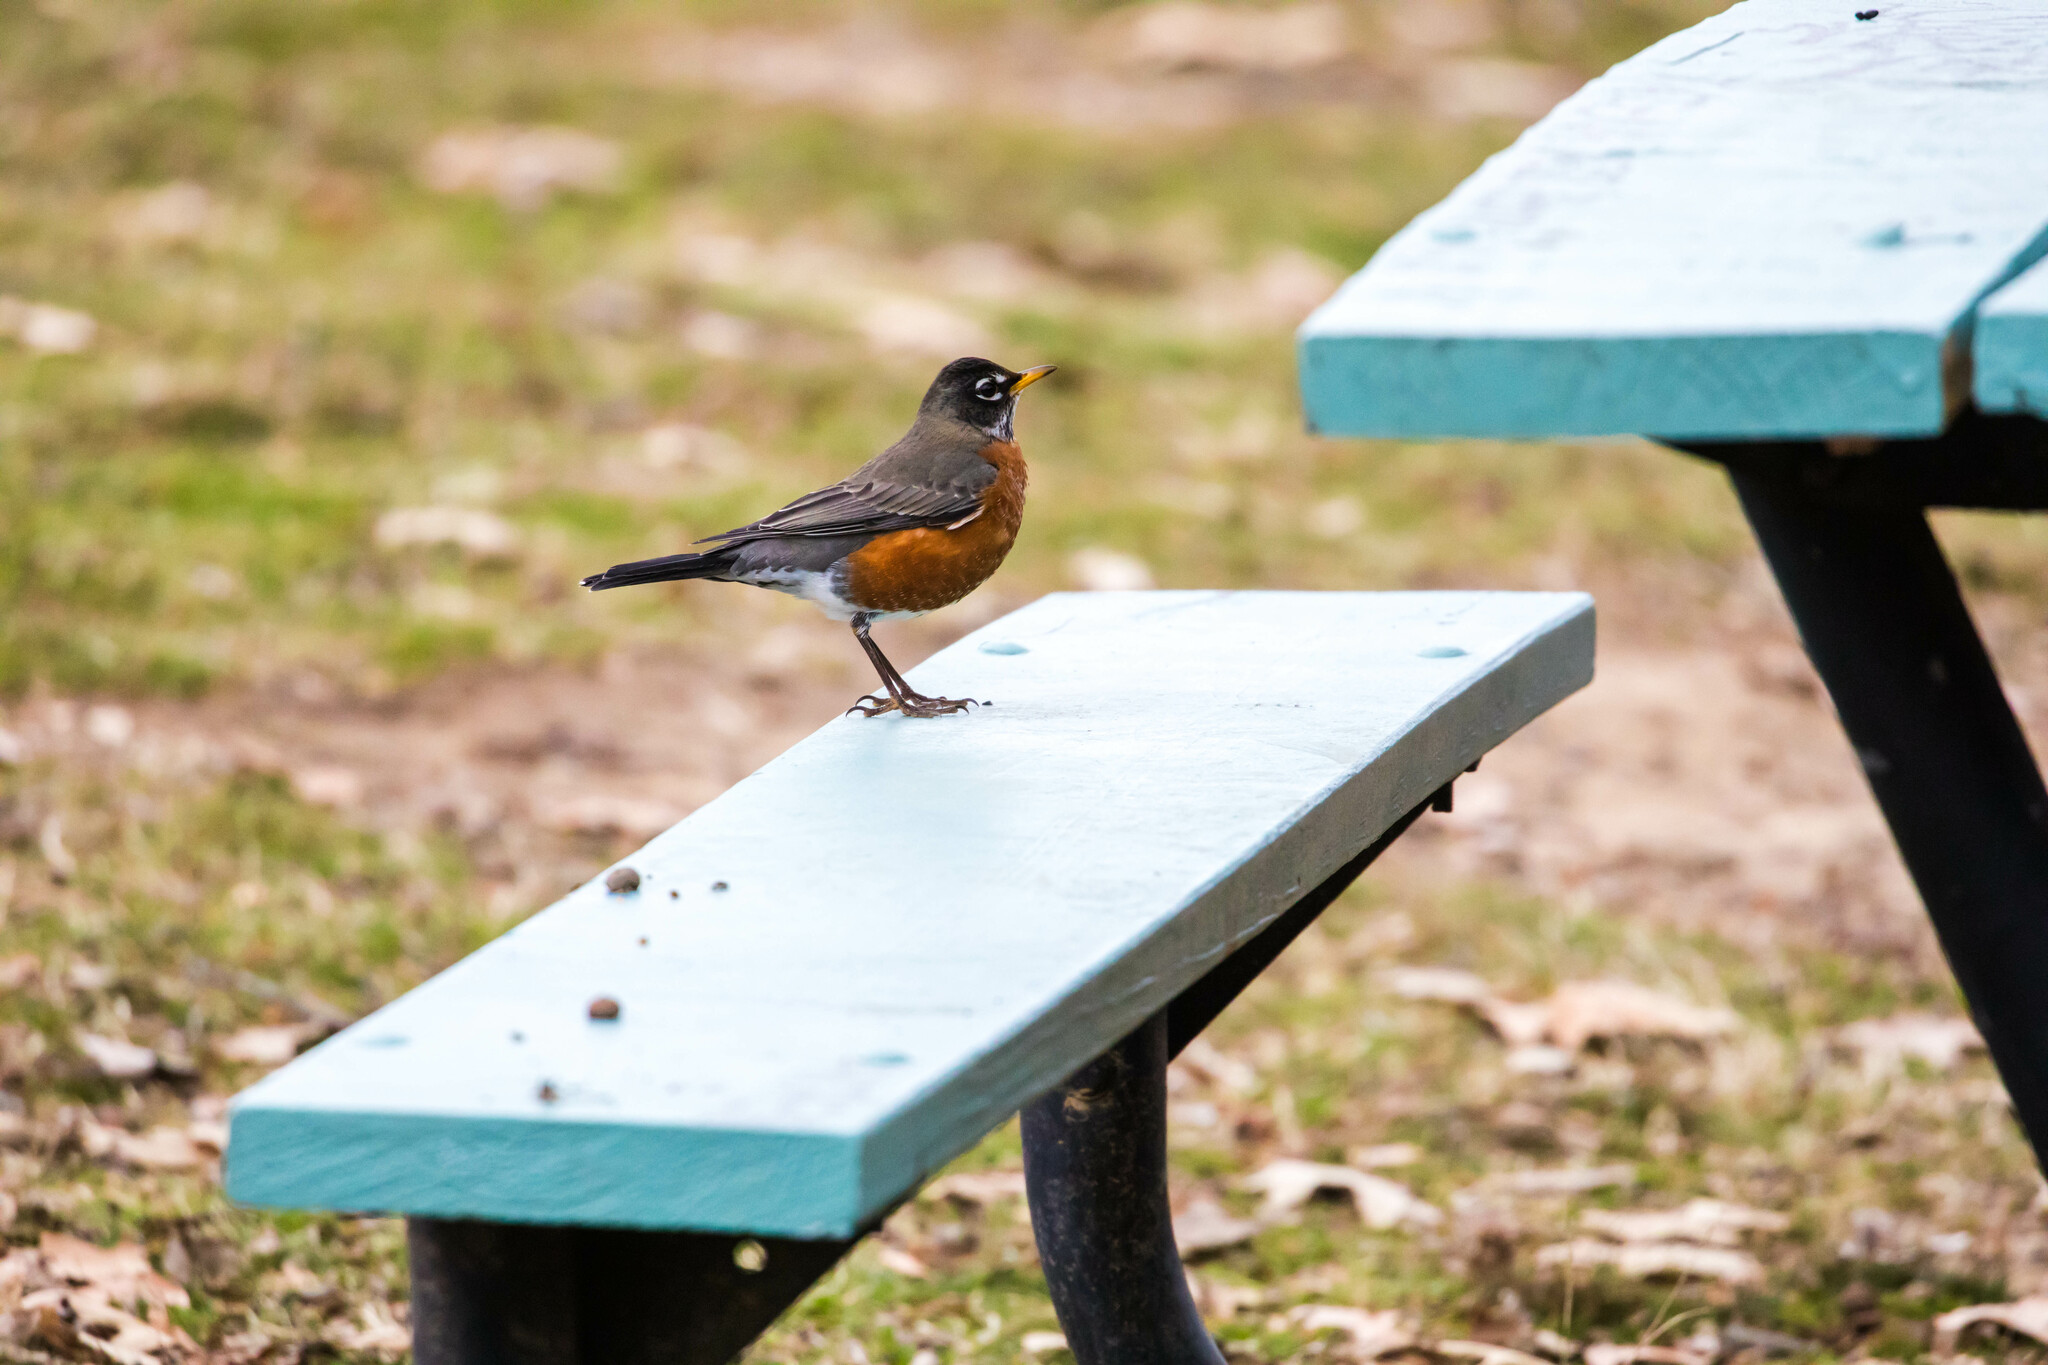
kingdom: Animalia
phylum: Chordata
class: Aves
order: Passeriformes
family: Turdidae
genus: Turdus
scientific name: Turdus migratorius
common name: American robin
